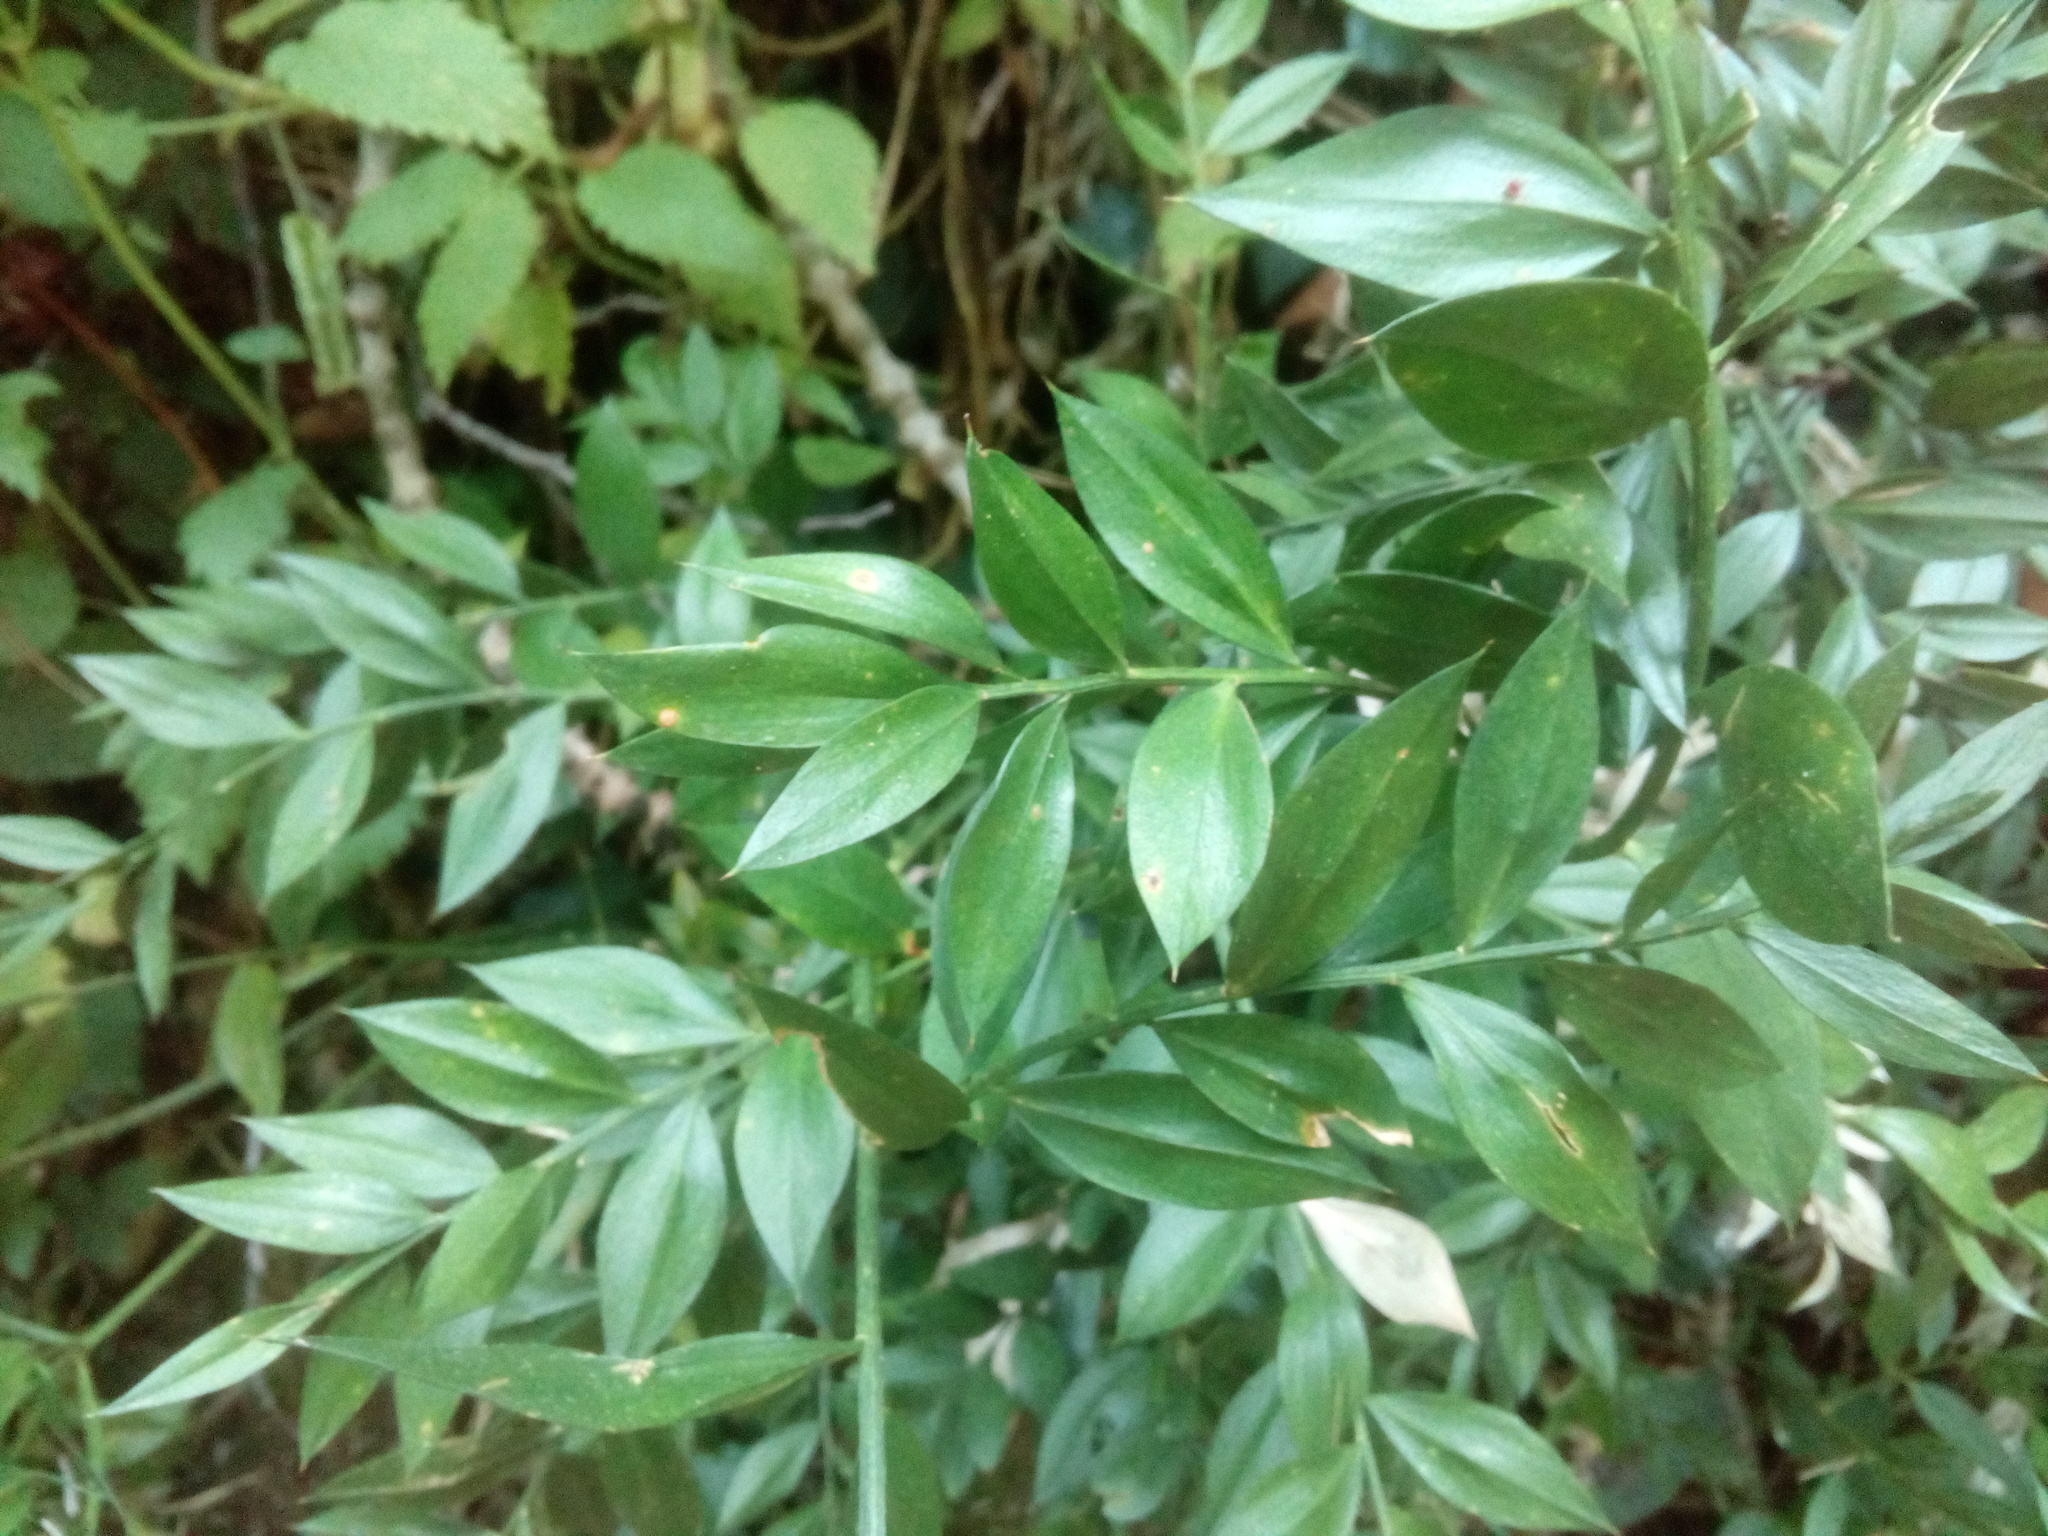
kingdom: Plantae
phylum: Tracheophyta
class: Liliopsida
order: Asparagales
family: Asparagaceae
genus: Ruscus
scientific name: Ruscus aculeatus
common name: Butcher's-broom
